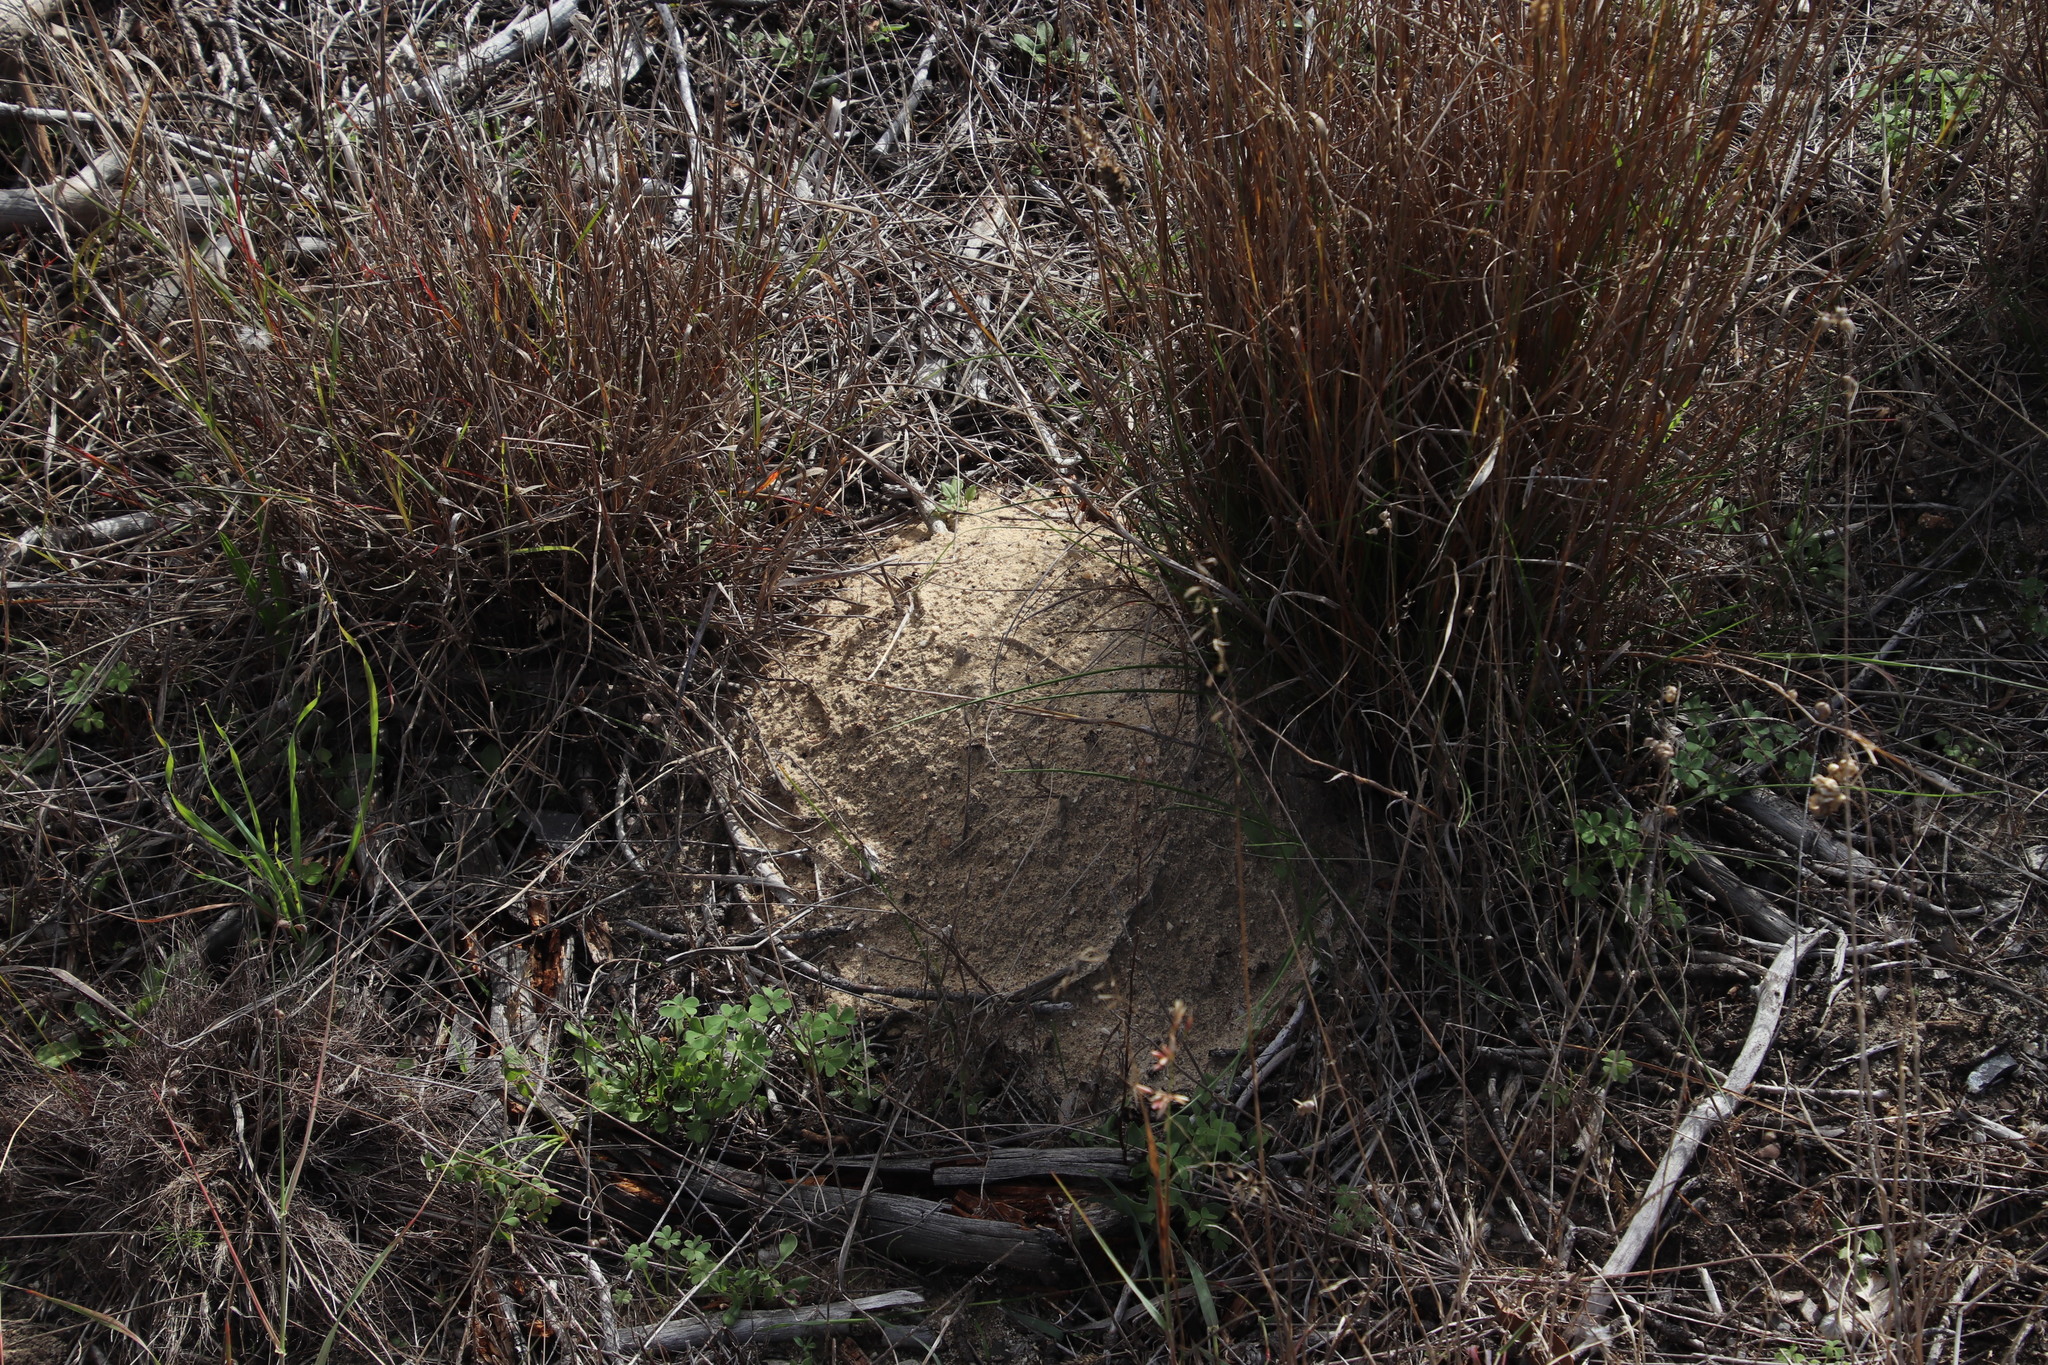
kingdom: Animalia
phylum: Chordata
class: Mammalia
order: Rodentia
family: Bathyergidae
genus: Georychus
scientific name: Georychus capensis
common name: Cape mole-rat
